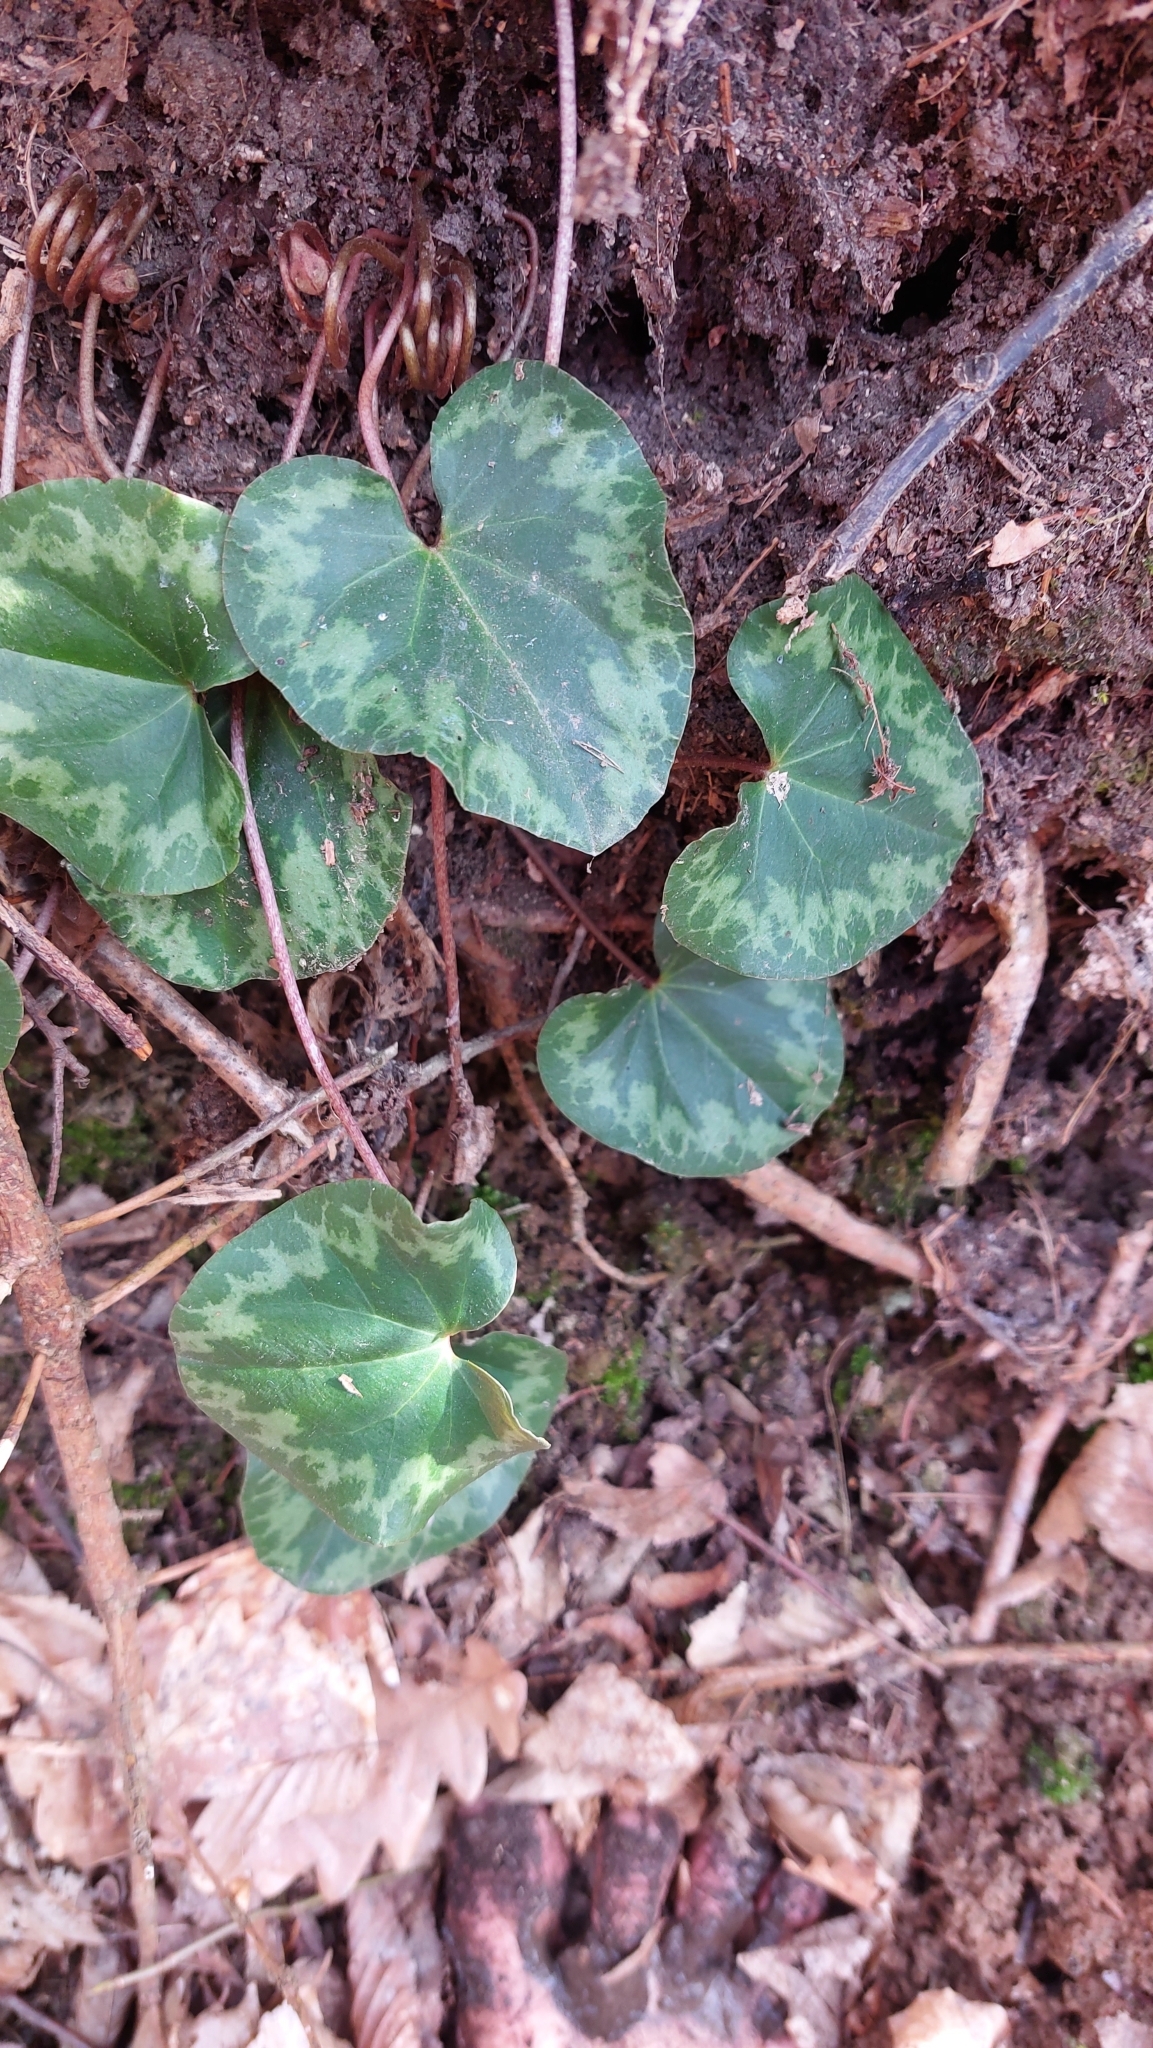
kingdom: Plantae
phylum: Tracheophyta
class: Magnoliopsida
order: Ericales
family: Primulaceae
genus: Cyclamen
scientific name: Cyclamen purpurascens
